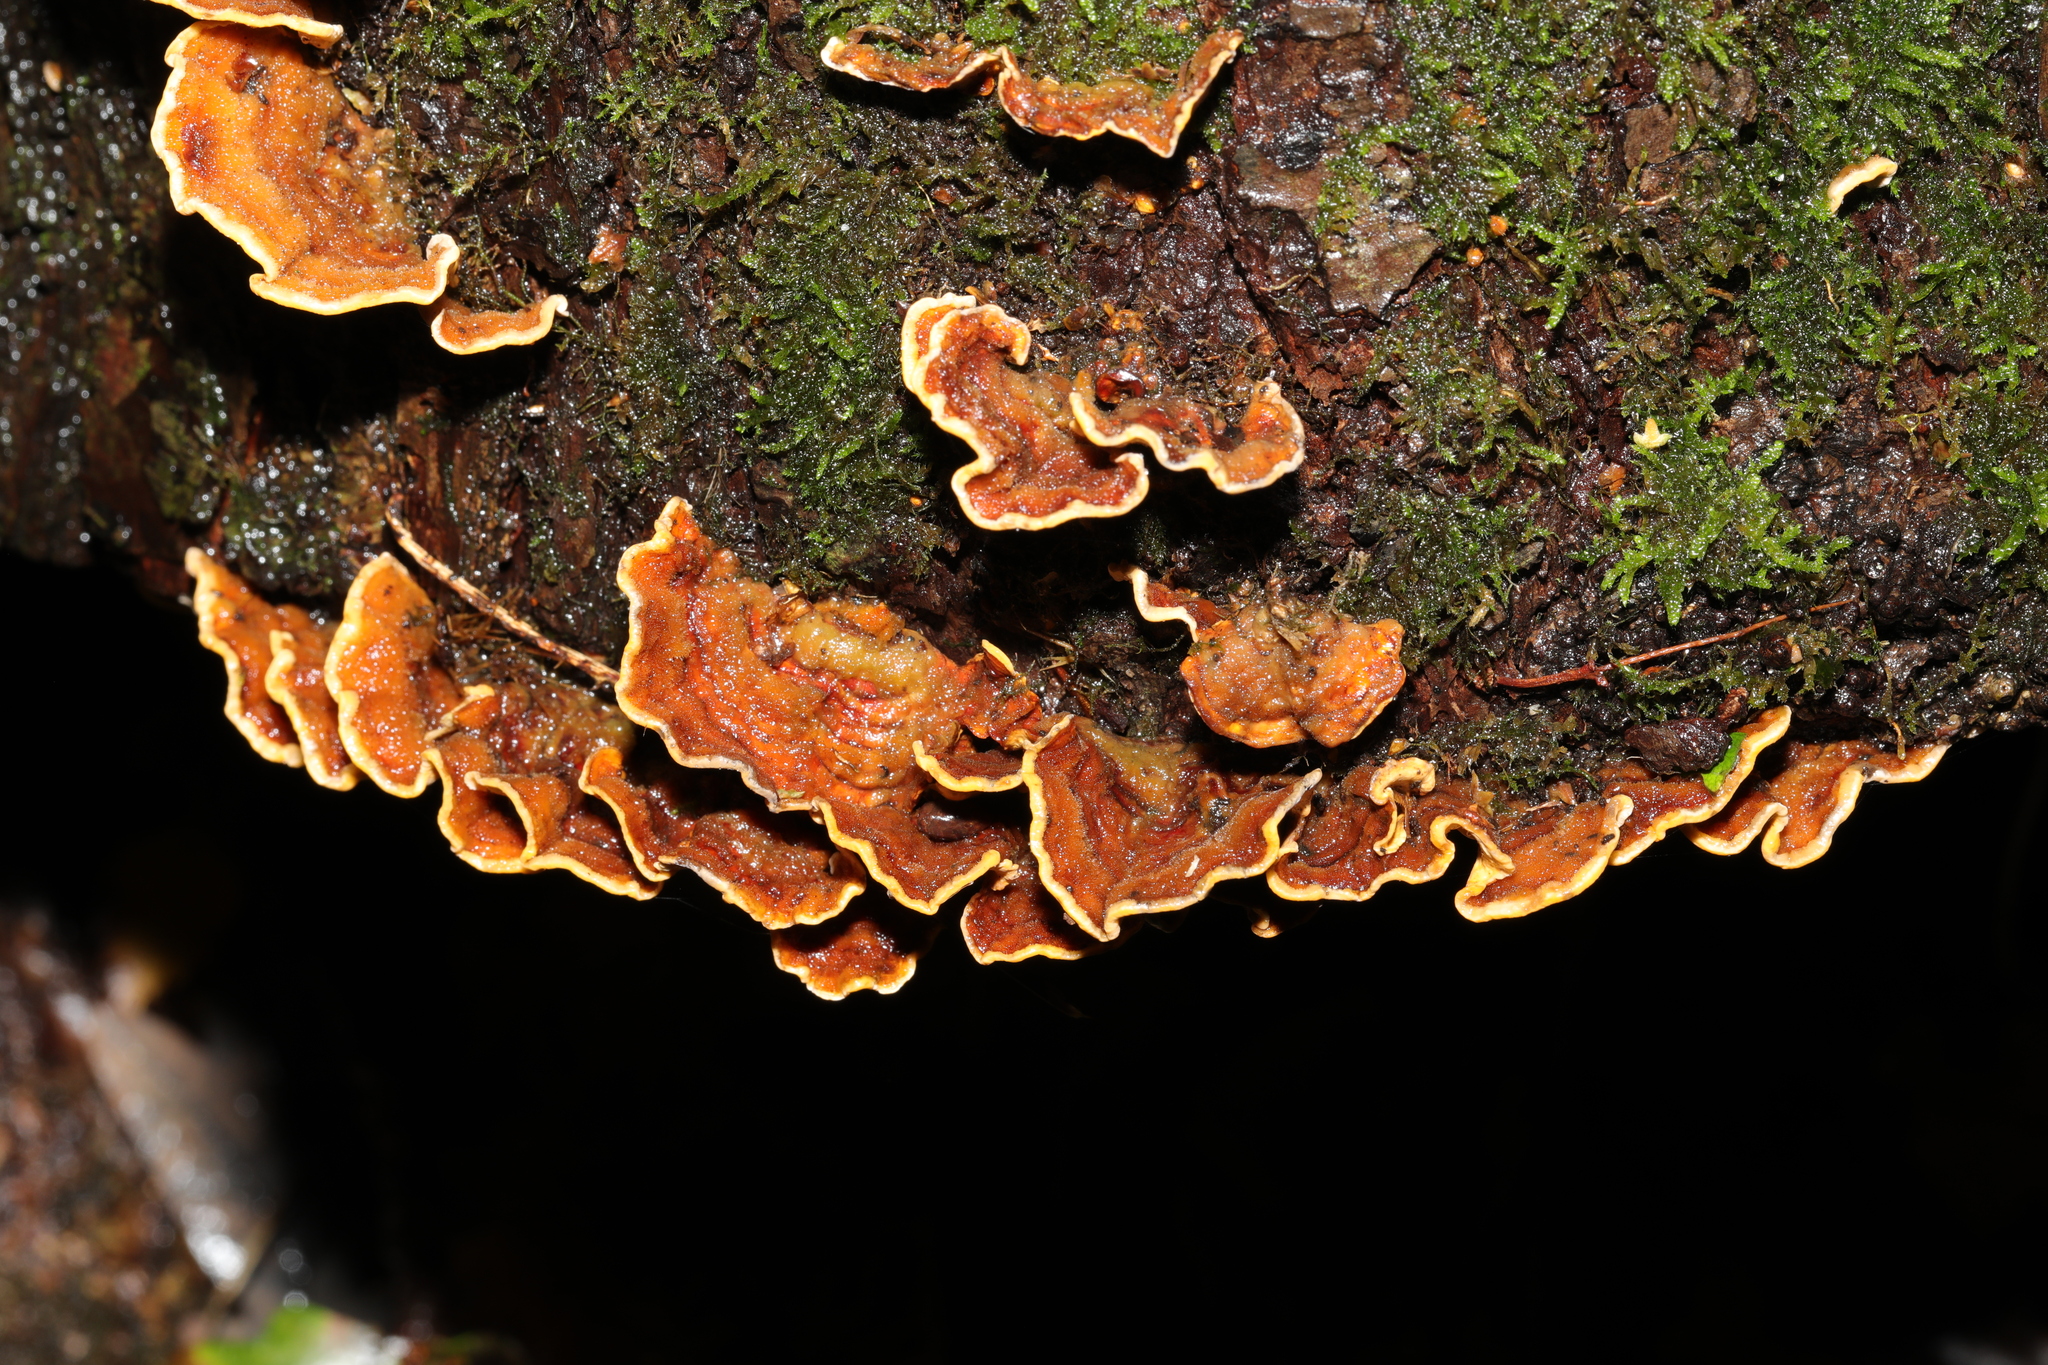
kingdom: Fungi
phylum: Basidiomycota
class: Agaricomycetes
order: Russulales
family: Stereaceae
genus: Stereum
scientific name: Stereum hirsutum
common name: Hairy curtain crust
